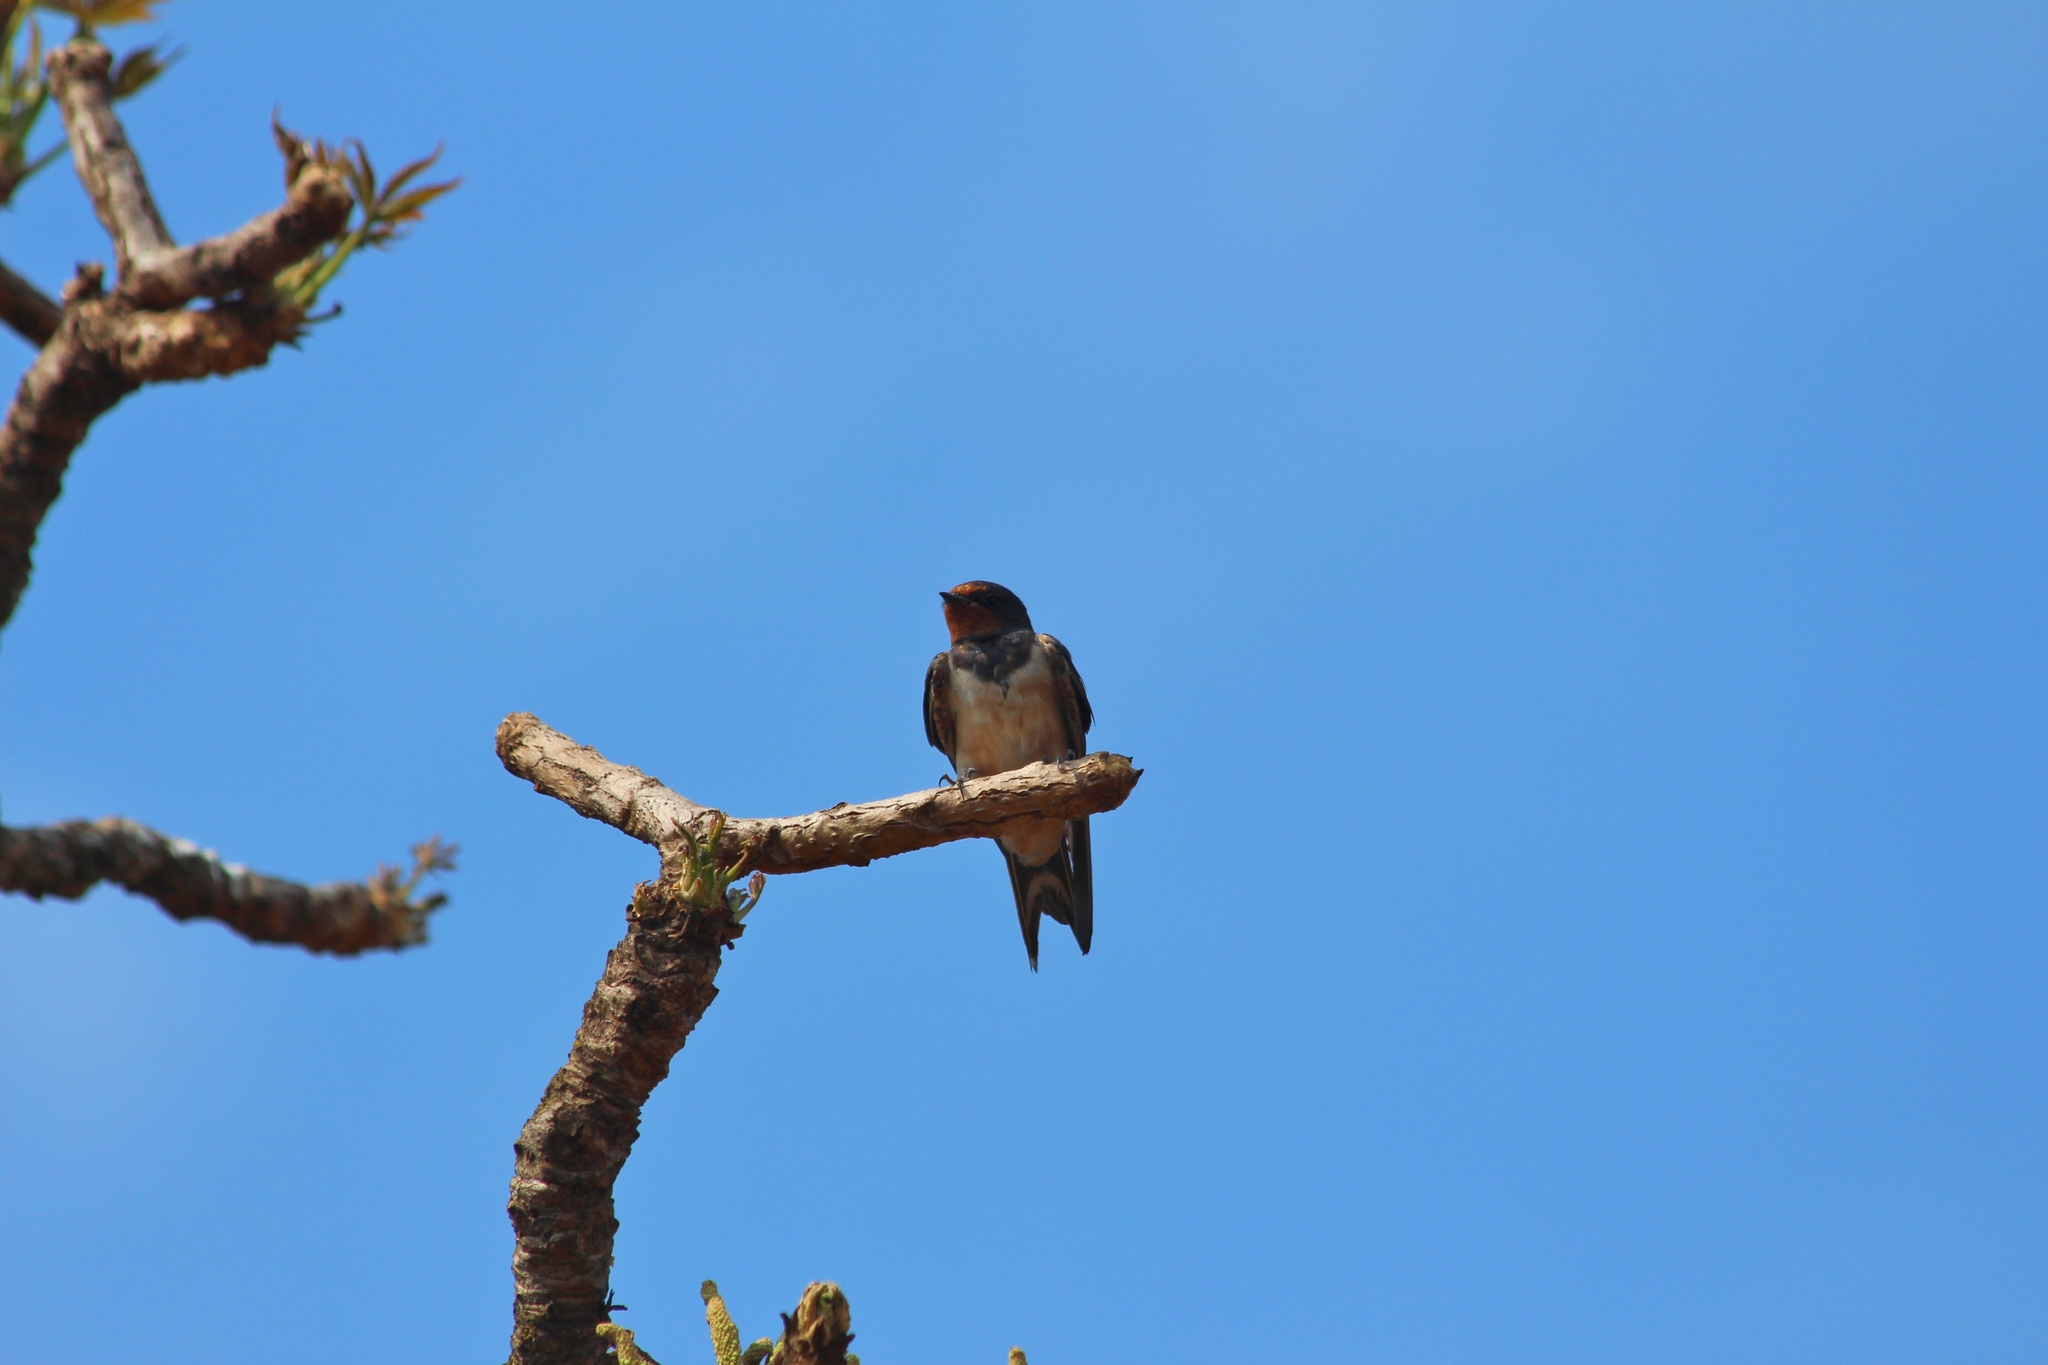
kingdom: Animalia
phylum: Chordata
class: Aves
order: Passeriformes
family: Hirundinidae
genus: Hirundo
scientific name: Hirundo rustica
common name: Barn swallow
